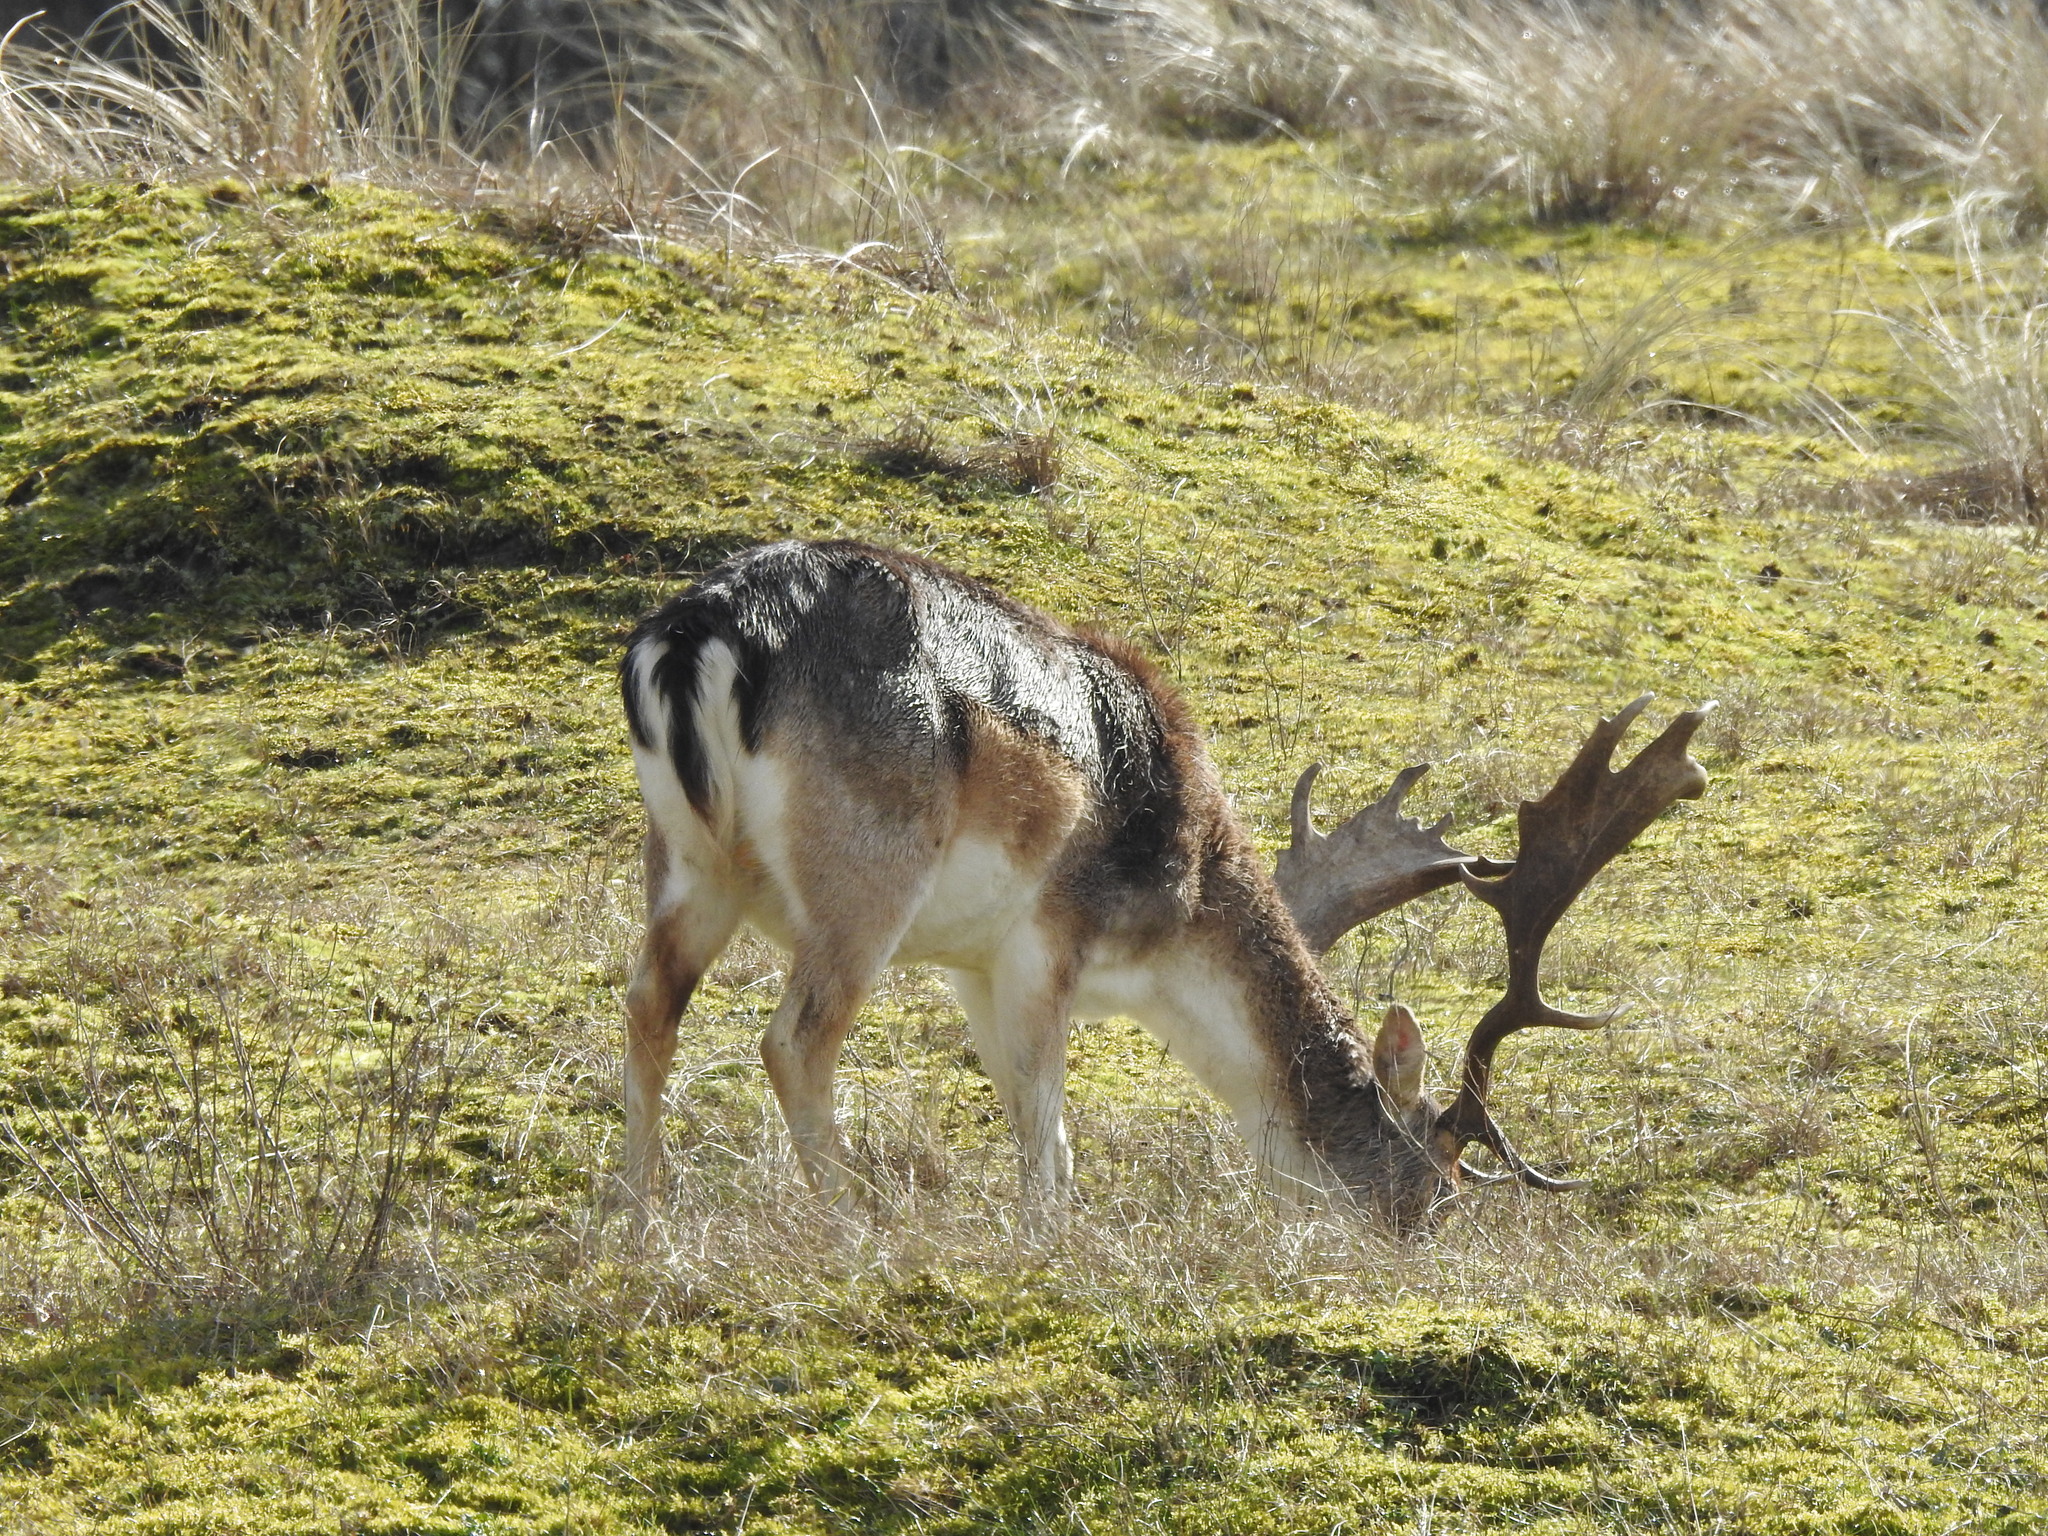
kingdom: Animalia
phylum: Chordata
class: Mammalia
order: Artiodactyla
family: Cervidae
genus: Dama
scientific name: Dama dama
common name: Fallow deer
